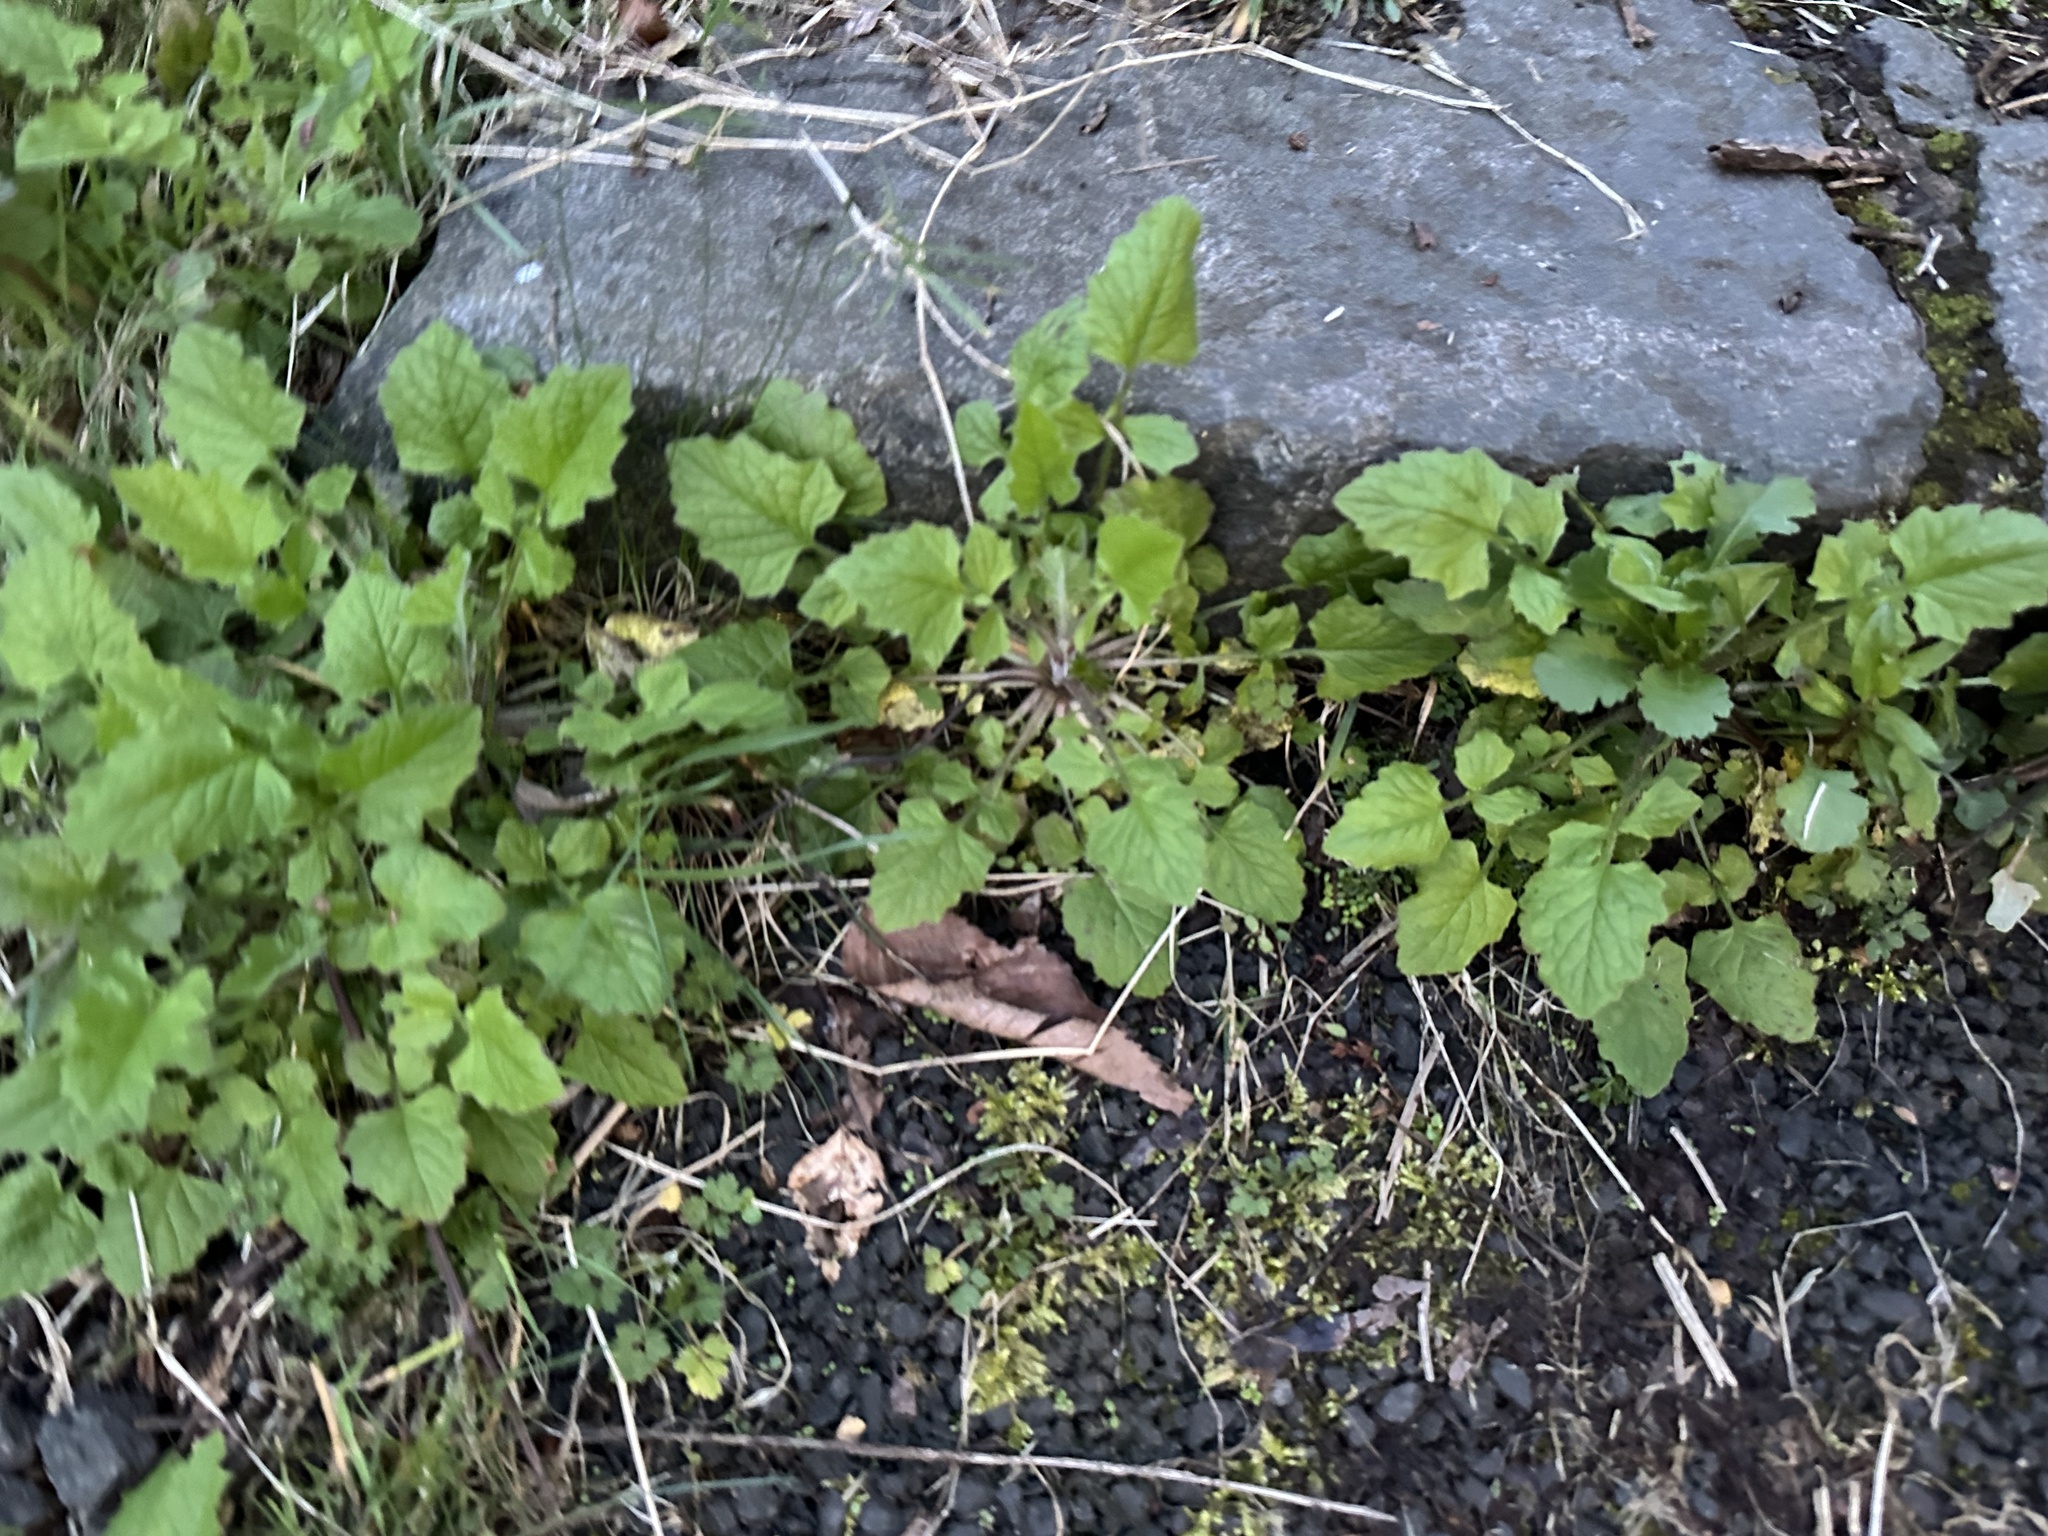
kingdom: Plantae
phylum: Tracheophyta
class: Magnoliopsida
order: Asterales
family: Asteraceae
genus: Lapsana
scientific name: Lapsana communis
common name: Nipplewort
